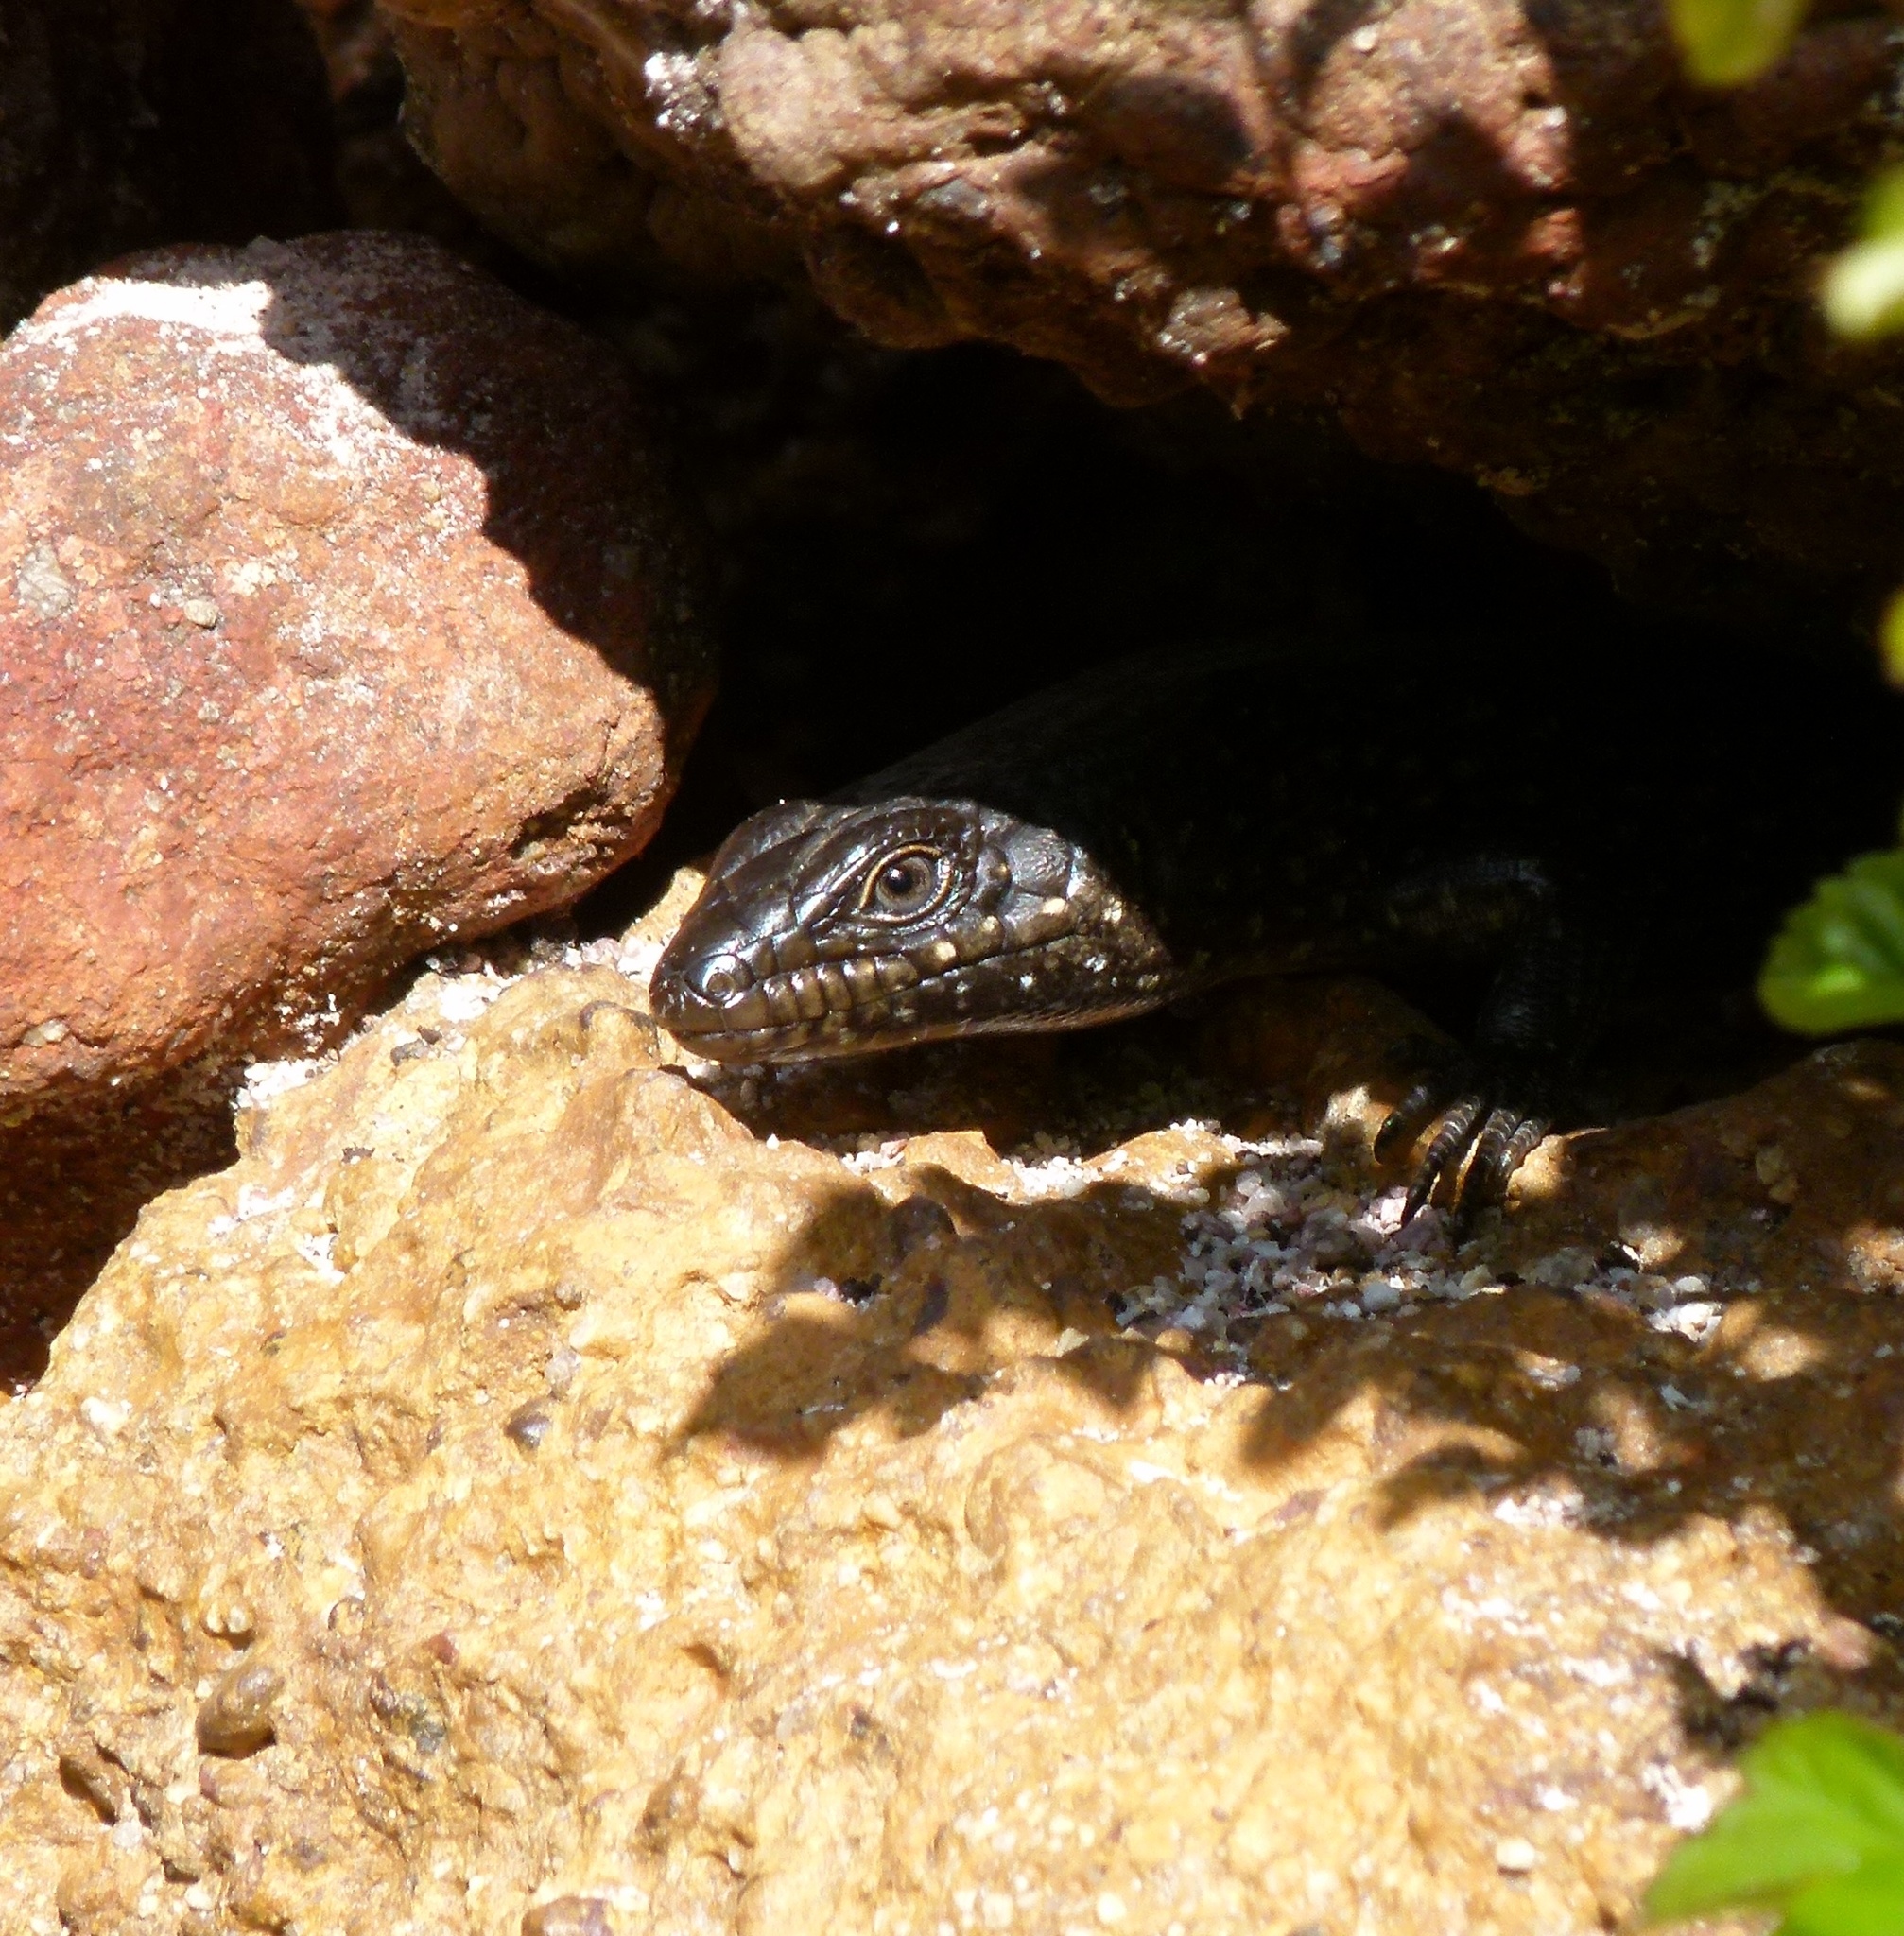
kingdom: Animalia
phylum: Chordata
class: Squamata
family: Scincidae
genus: Egernia
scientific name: Egernia kingii
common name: King's skink
